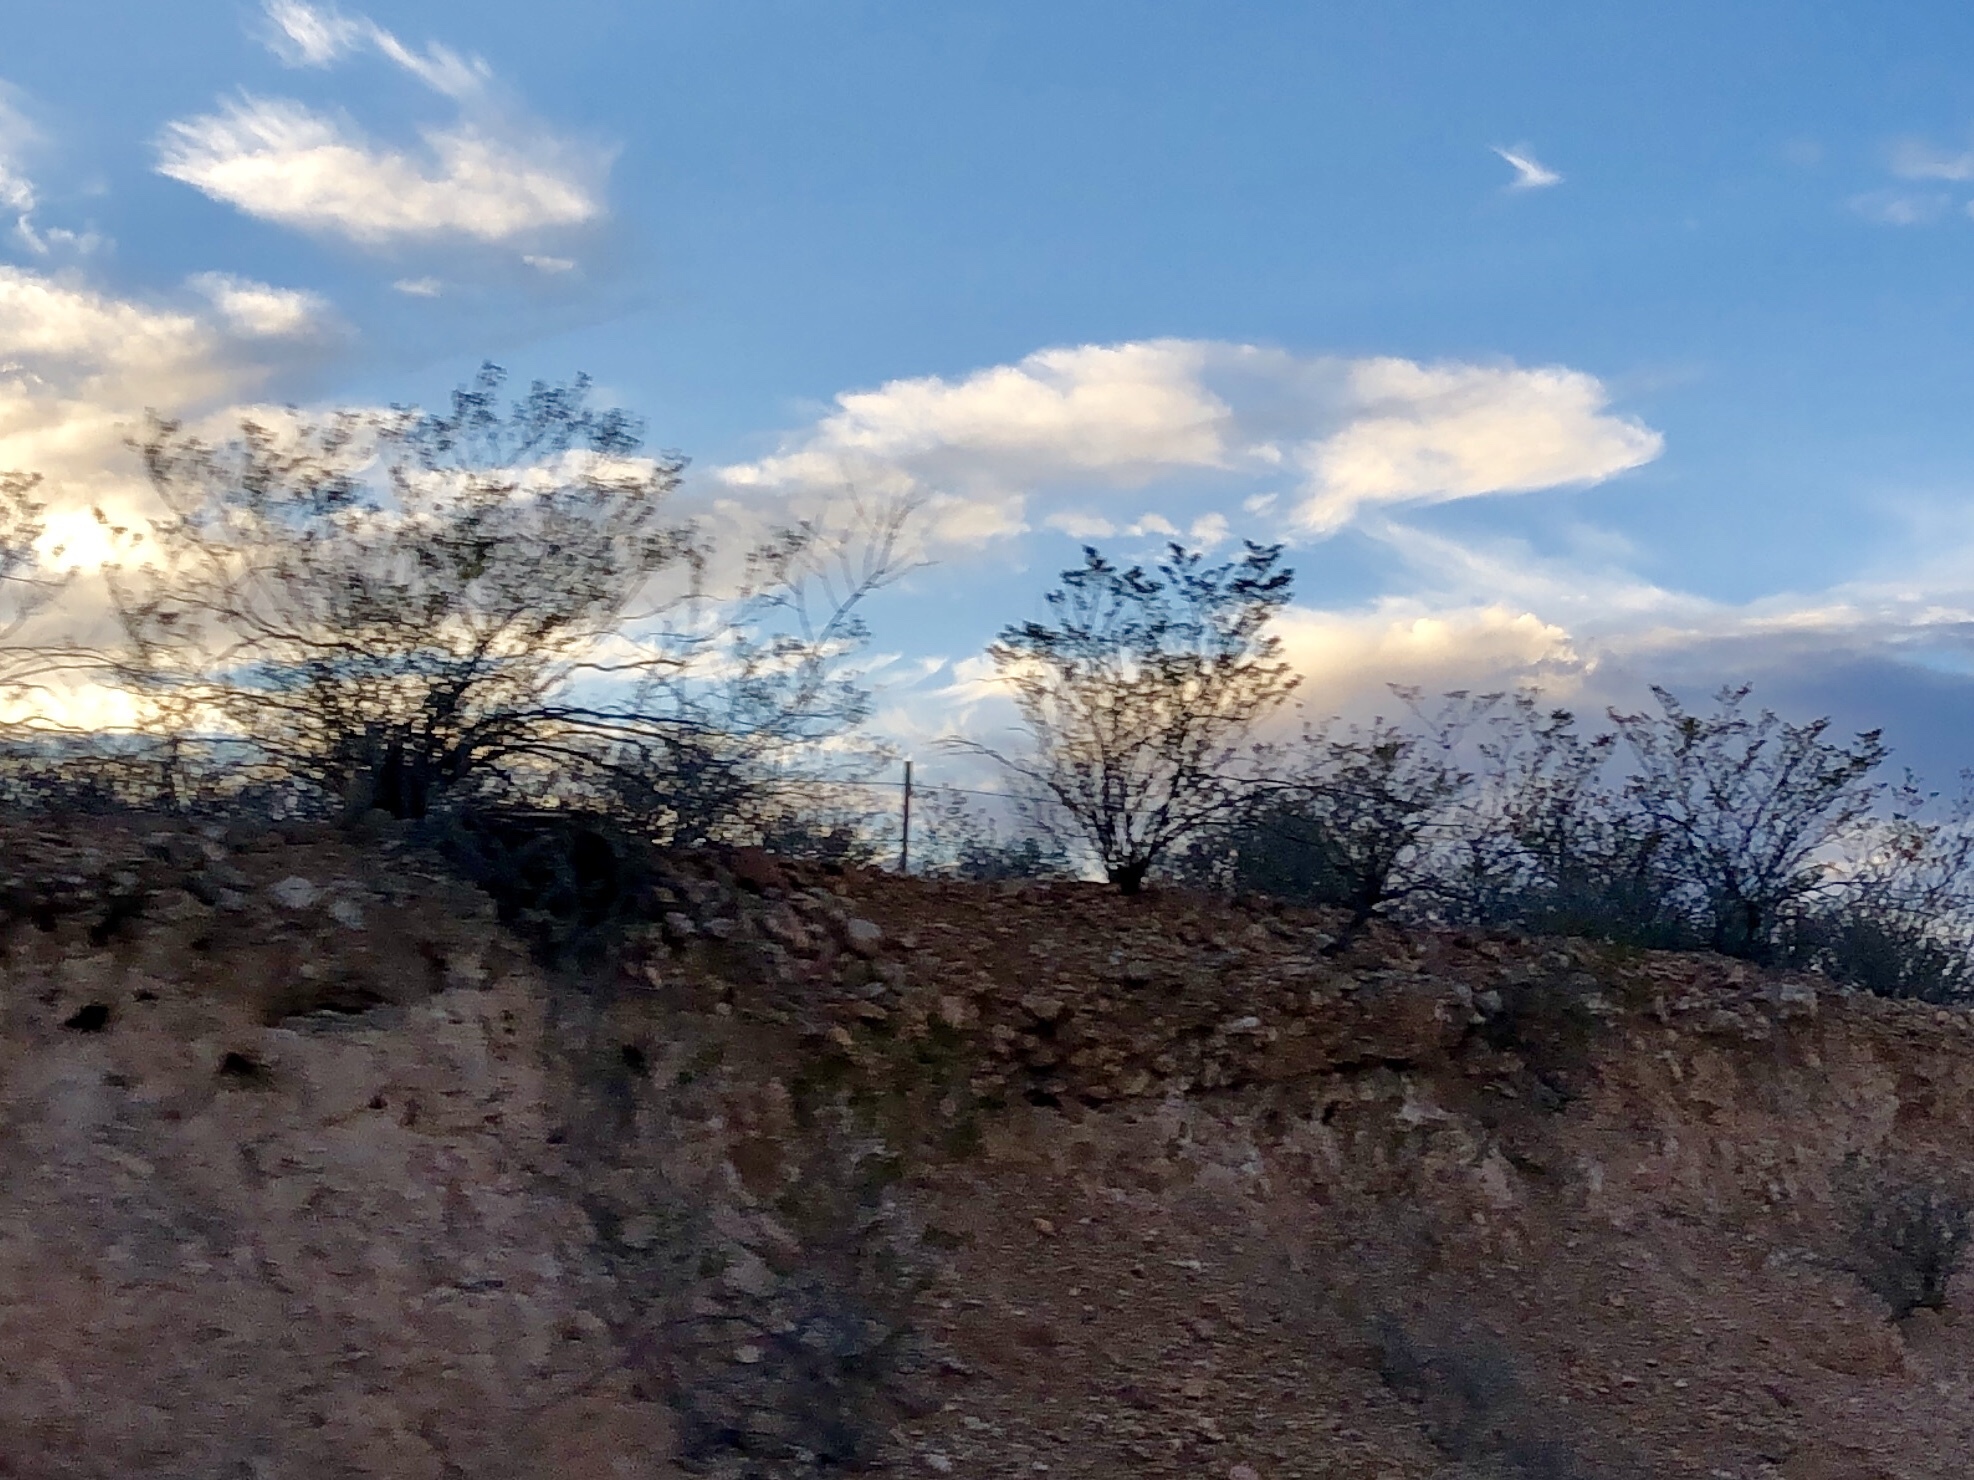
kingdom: Plantae
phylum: Tracheophyta
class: Magnoliopsida
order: Zygophyllales
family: Zygophyllaceae
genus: Larrea
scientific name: Larrea tridentata
